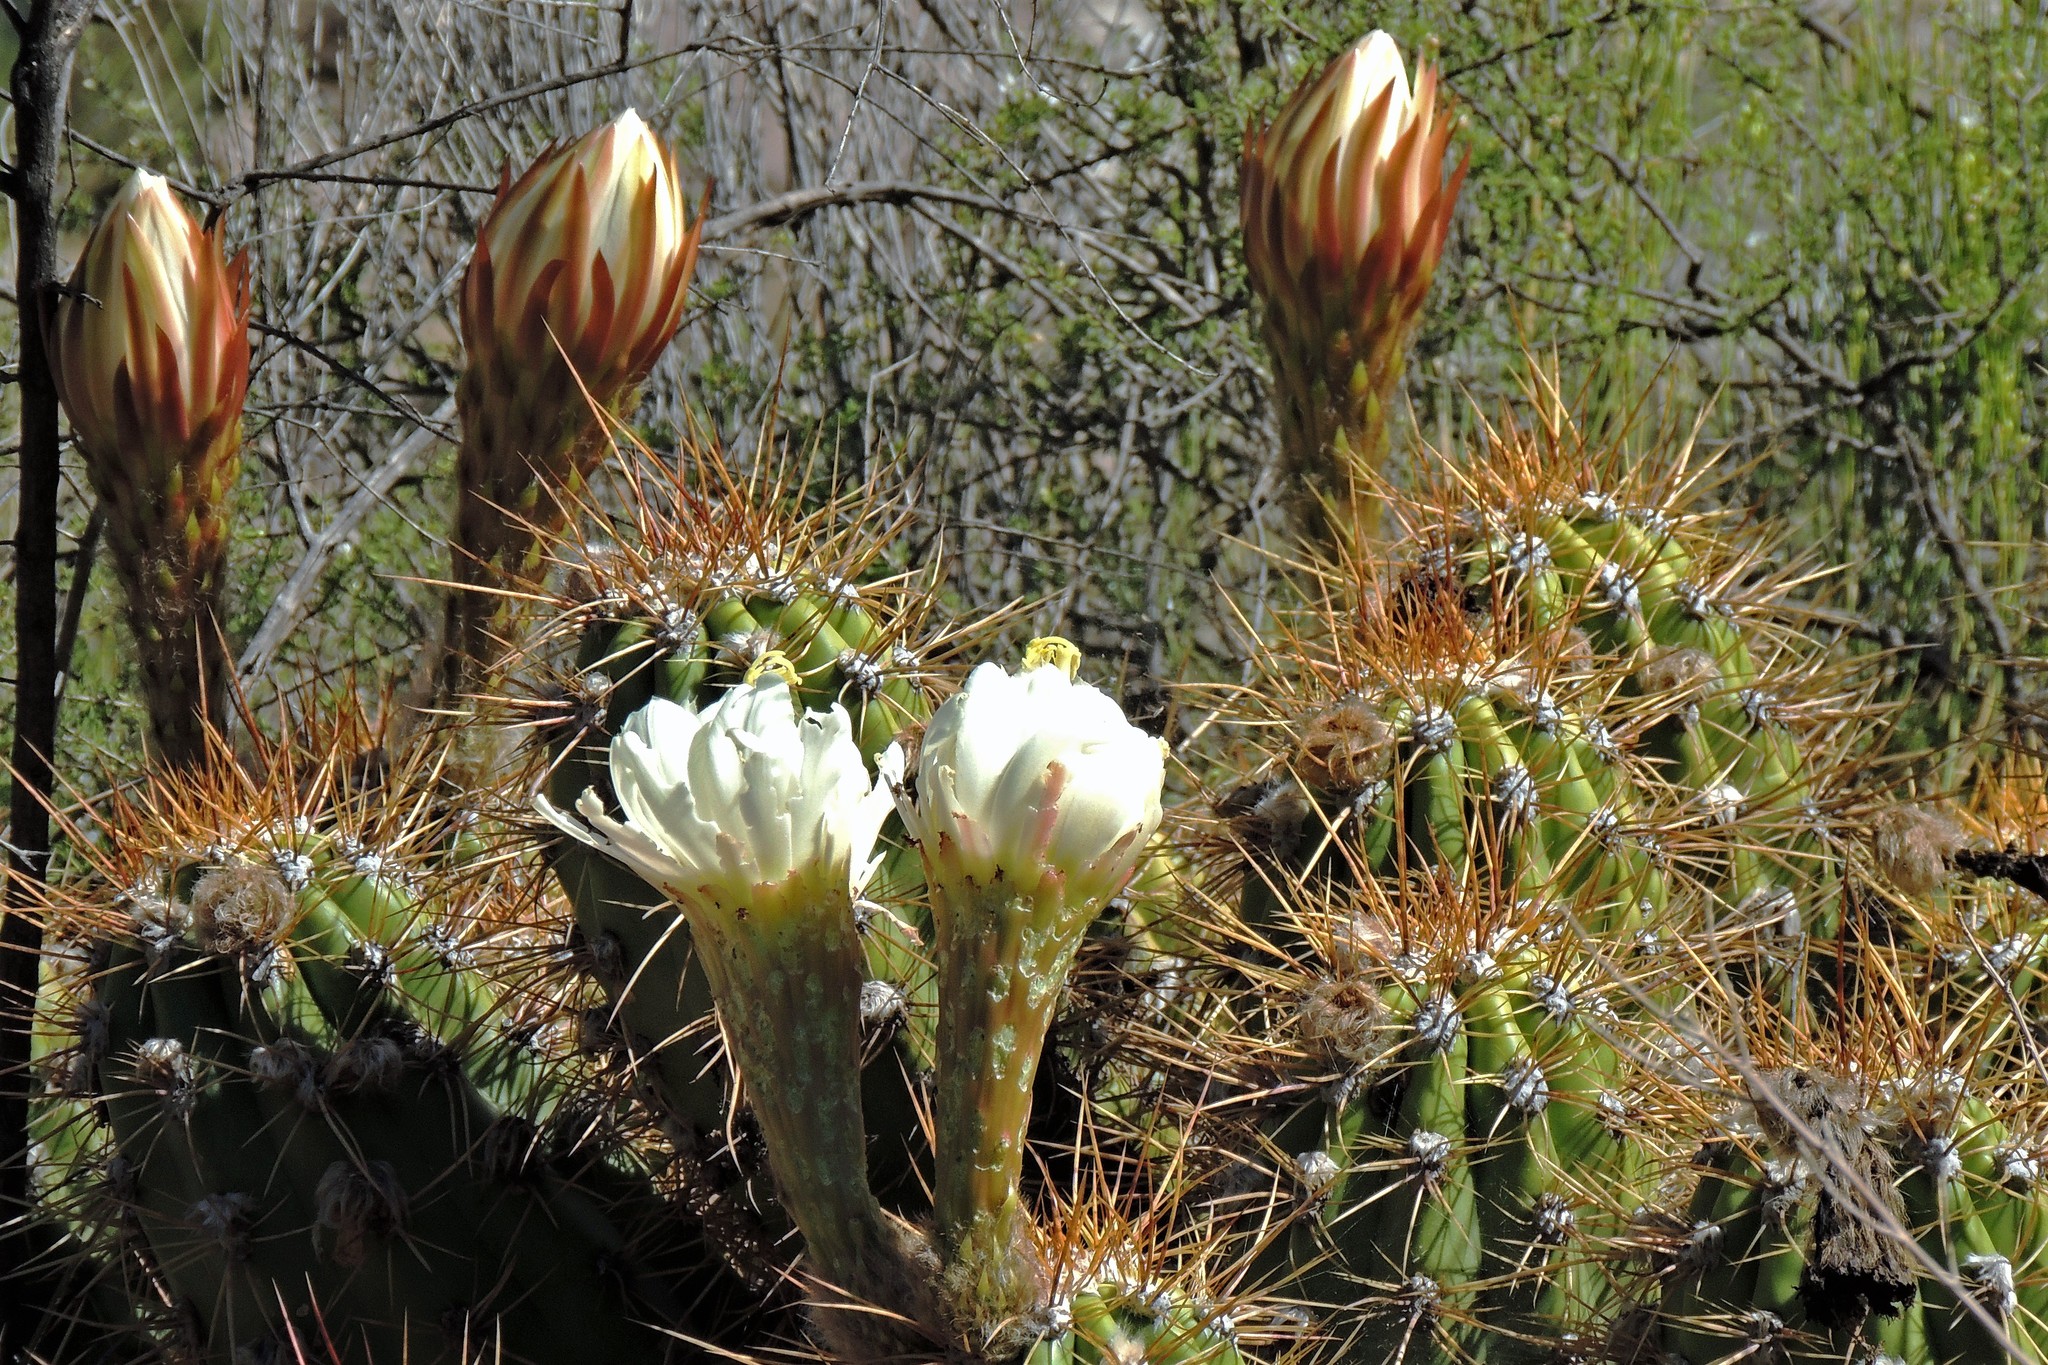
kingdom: Plantae
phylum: Tracheophyta
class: Magnoliopsida
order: Caryophyllales
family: Cactaceae
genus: Soehrensia
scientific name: Soehrensia candicans
